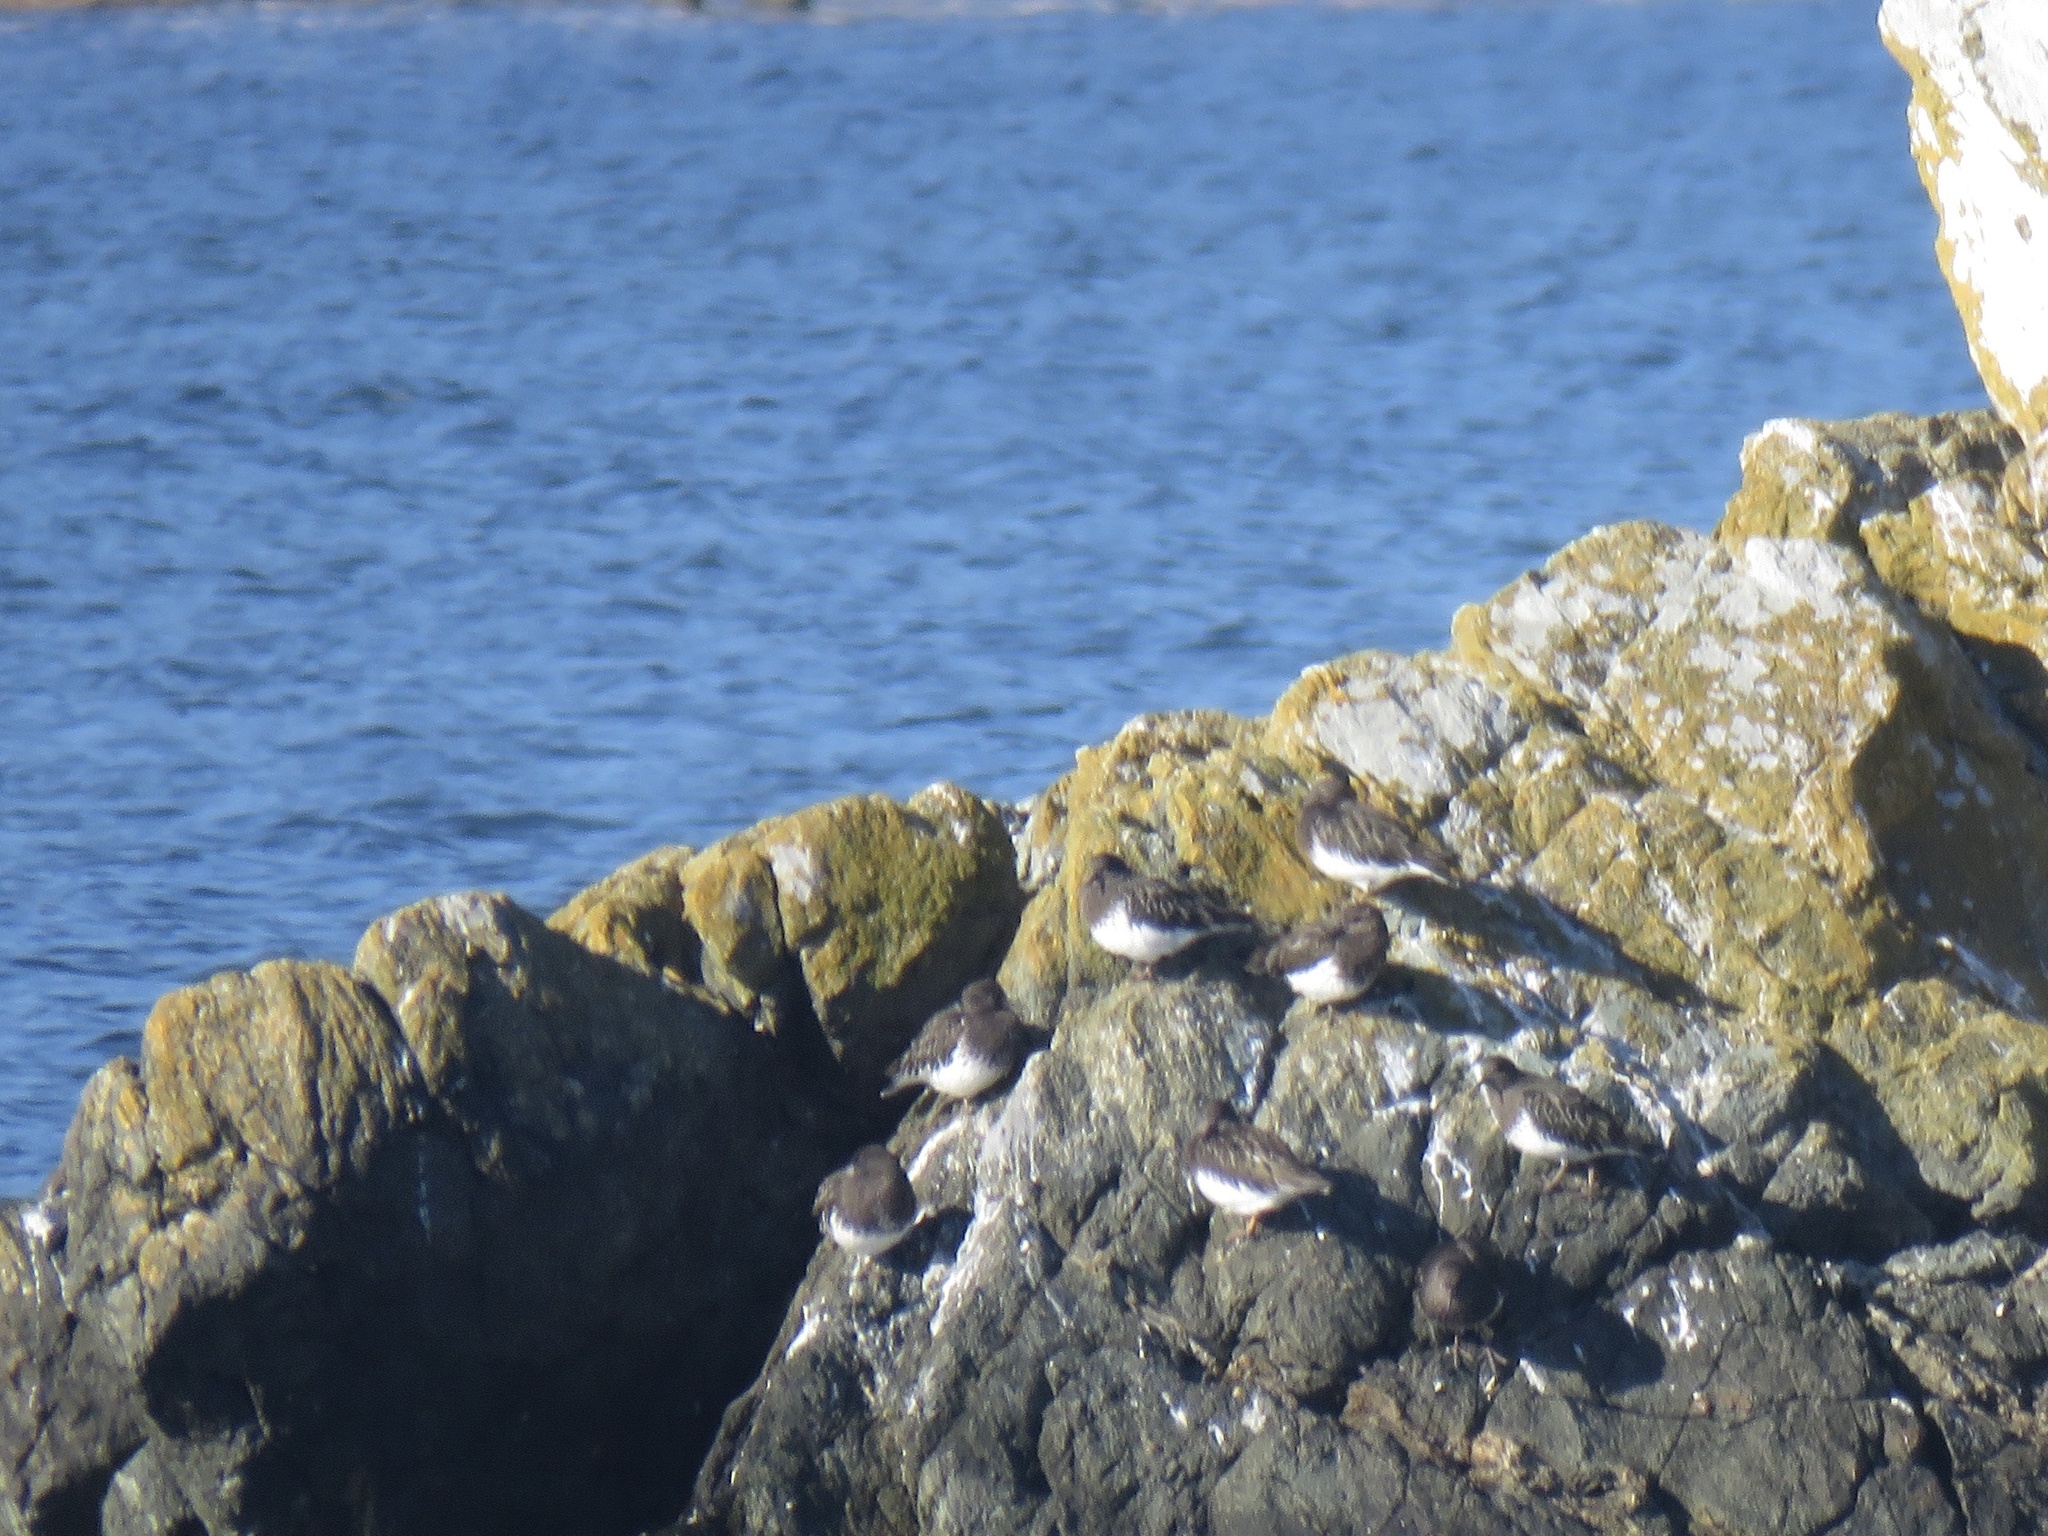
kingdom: Animalia
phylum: Chordata
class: Aves
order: Charadriiformes
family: Scolopacidae
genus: Arenaria
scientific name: Arenaria melanocephala
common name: Black turnstone
